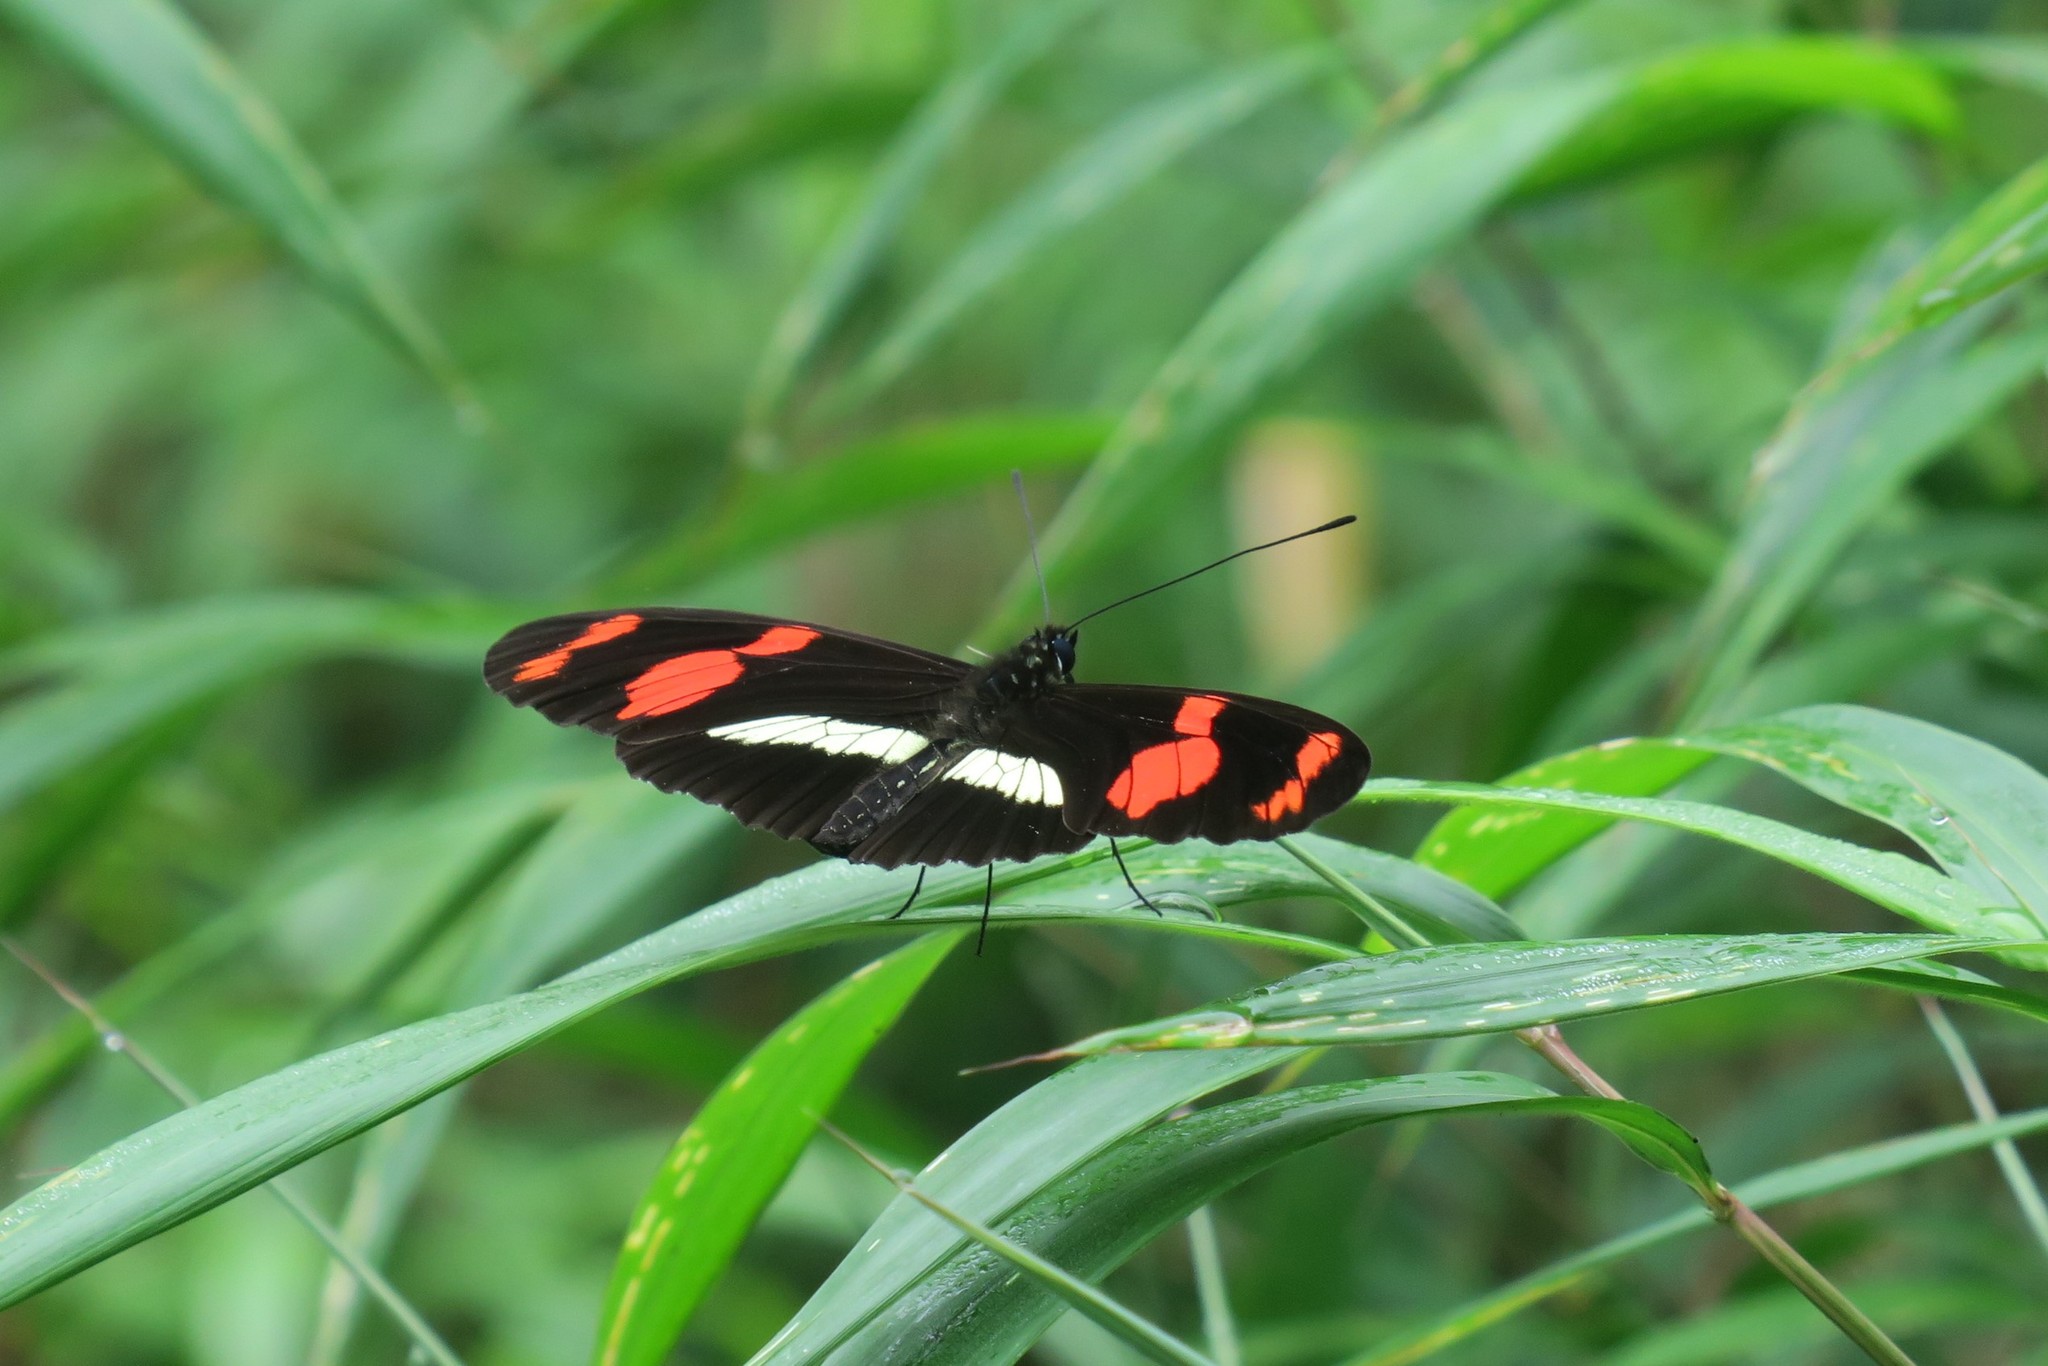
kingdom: Animalia
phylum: Arthropoda
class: Insecta
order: Lepidoptera
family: Nymphalidae
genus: Heliconius
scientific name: Heliconius telesiphe
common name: Telesiphe longwing
